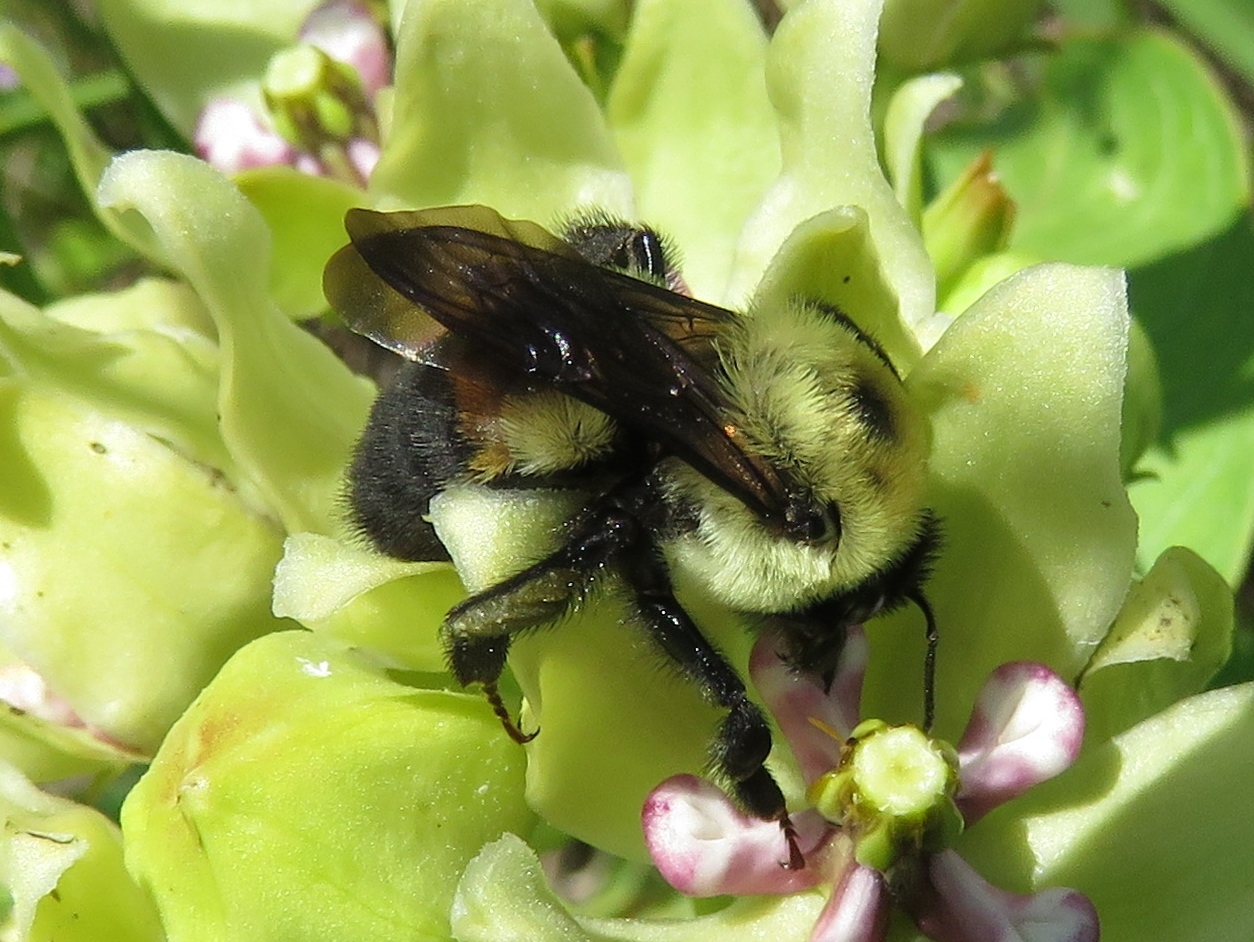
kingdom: Animalia
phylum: Arthropoda
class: Insecta
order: Hymenoptera
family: Apidae
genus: Bombus
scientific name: Bombus griseocollis
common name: Brown-belted bumble bee
